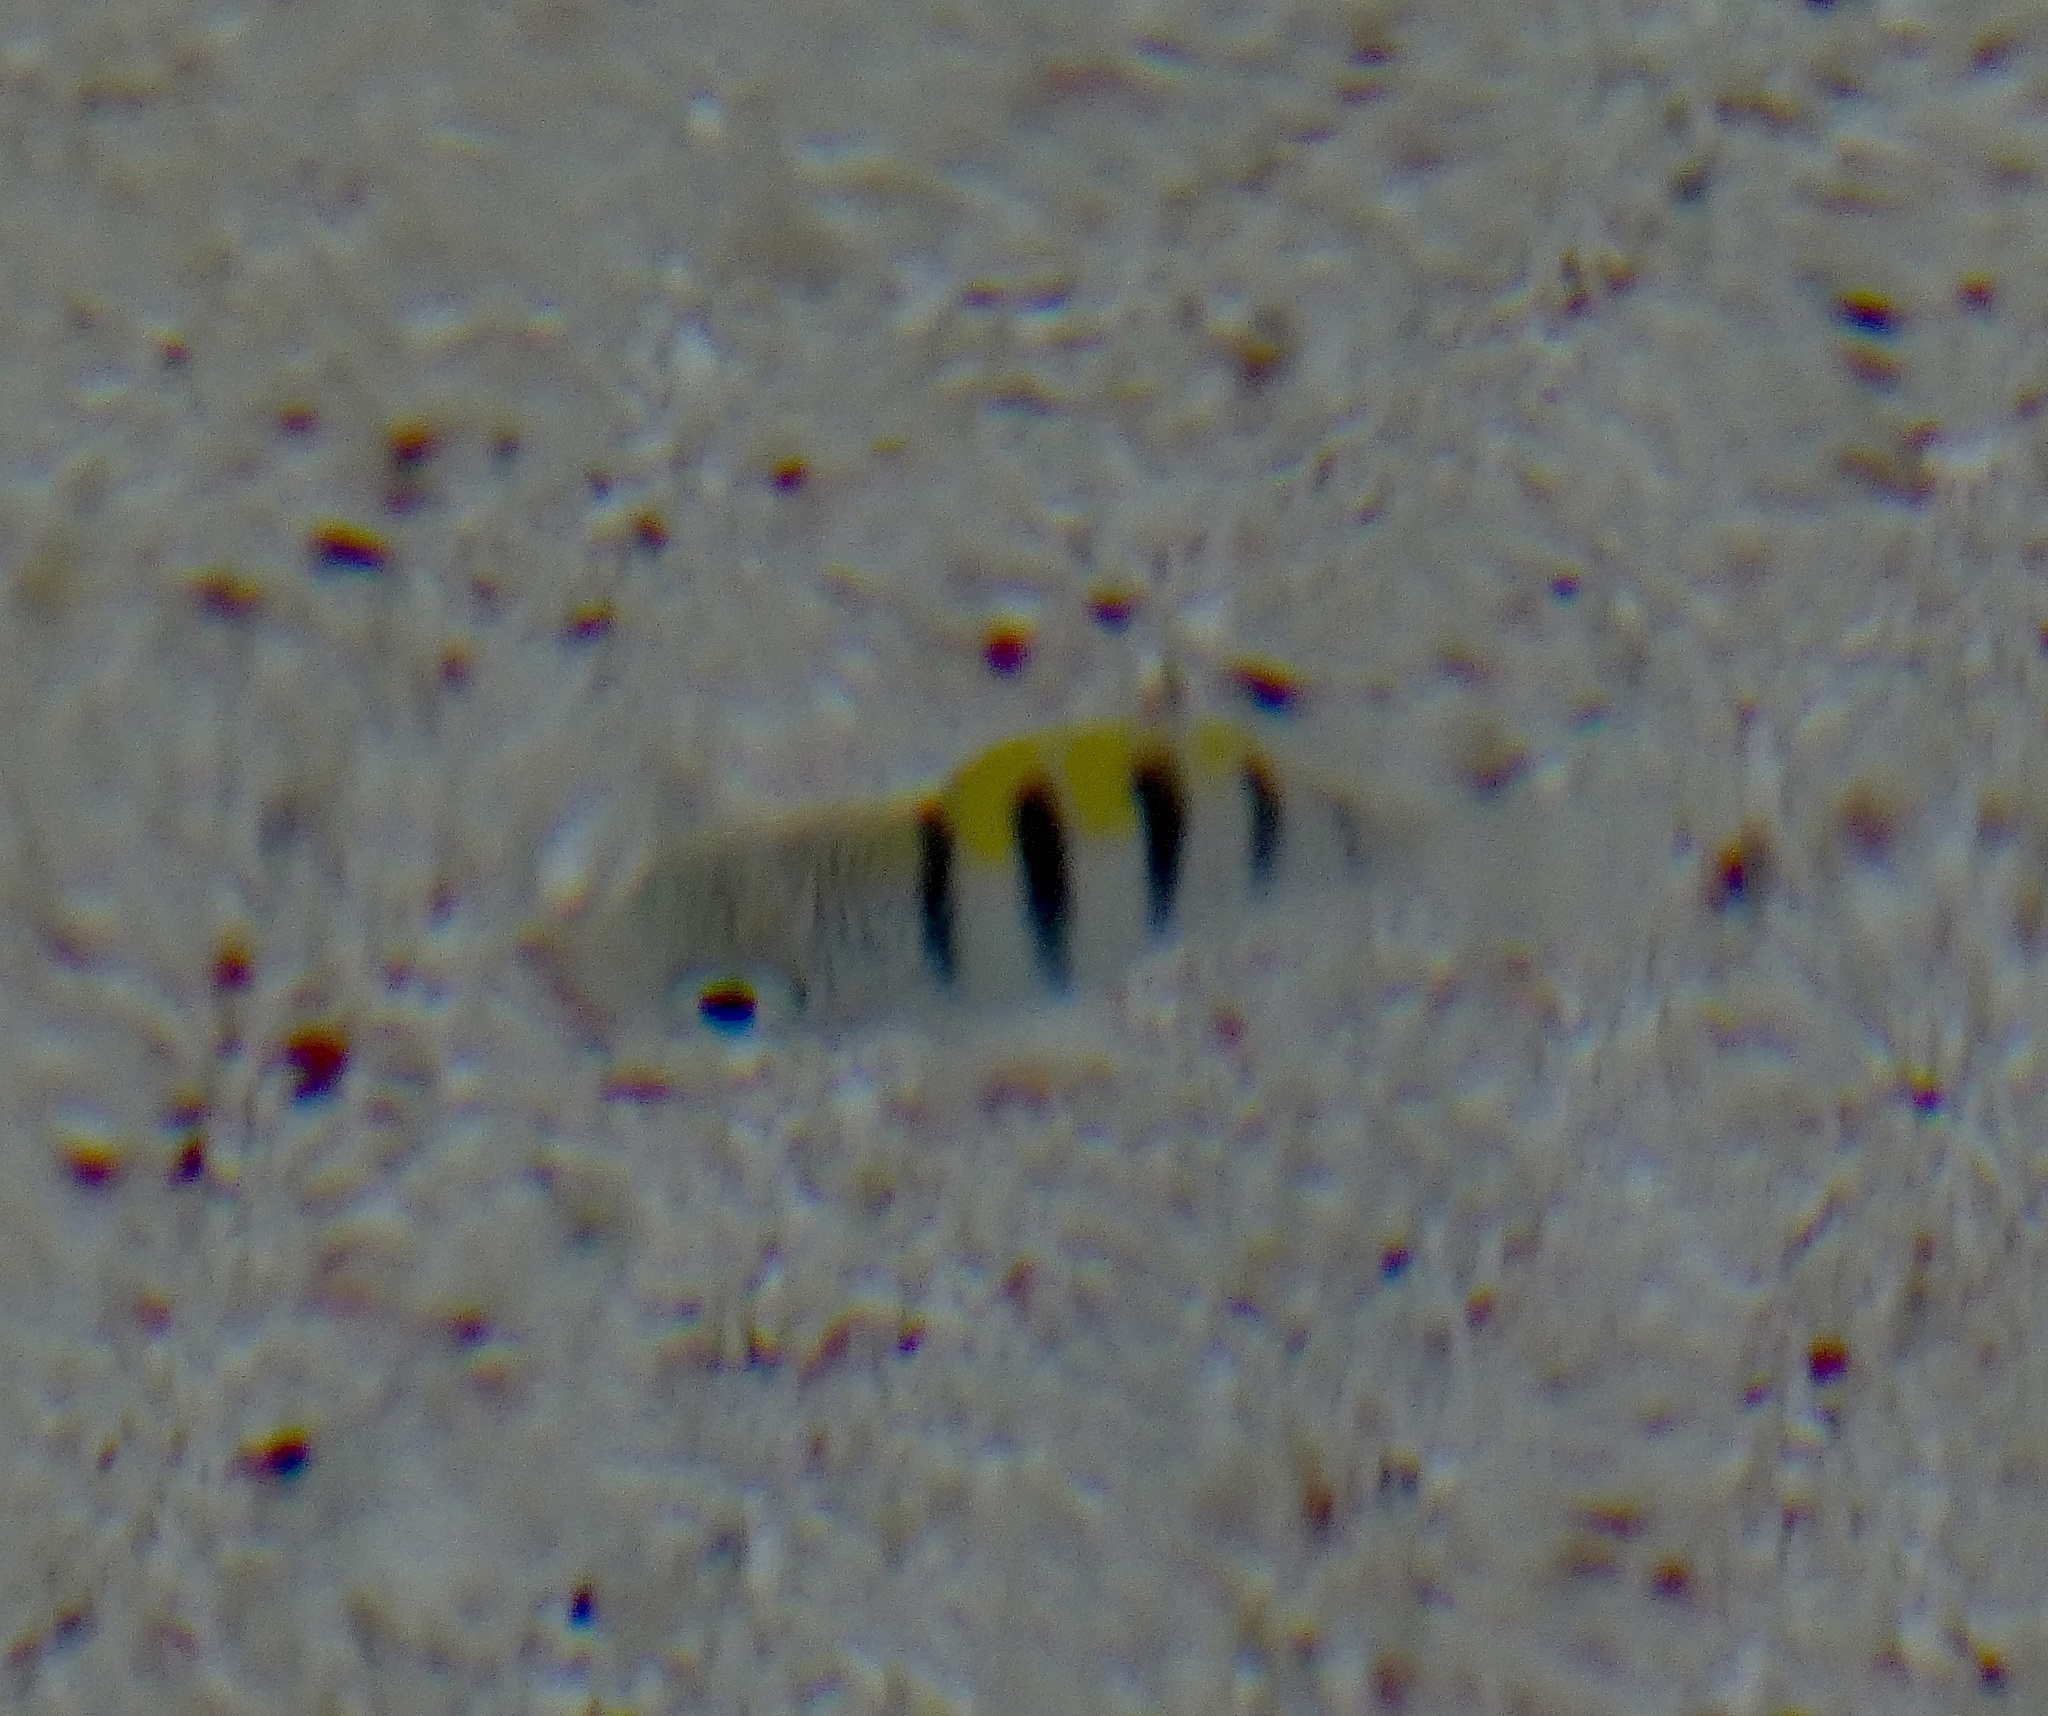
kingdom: Animalia
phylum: Chordata
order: Perciformes
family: Pomacentridae
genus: Abudefduf
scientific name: Abudefduf saxatilis
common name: Sergeant major
